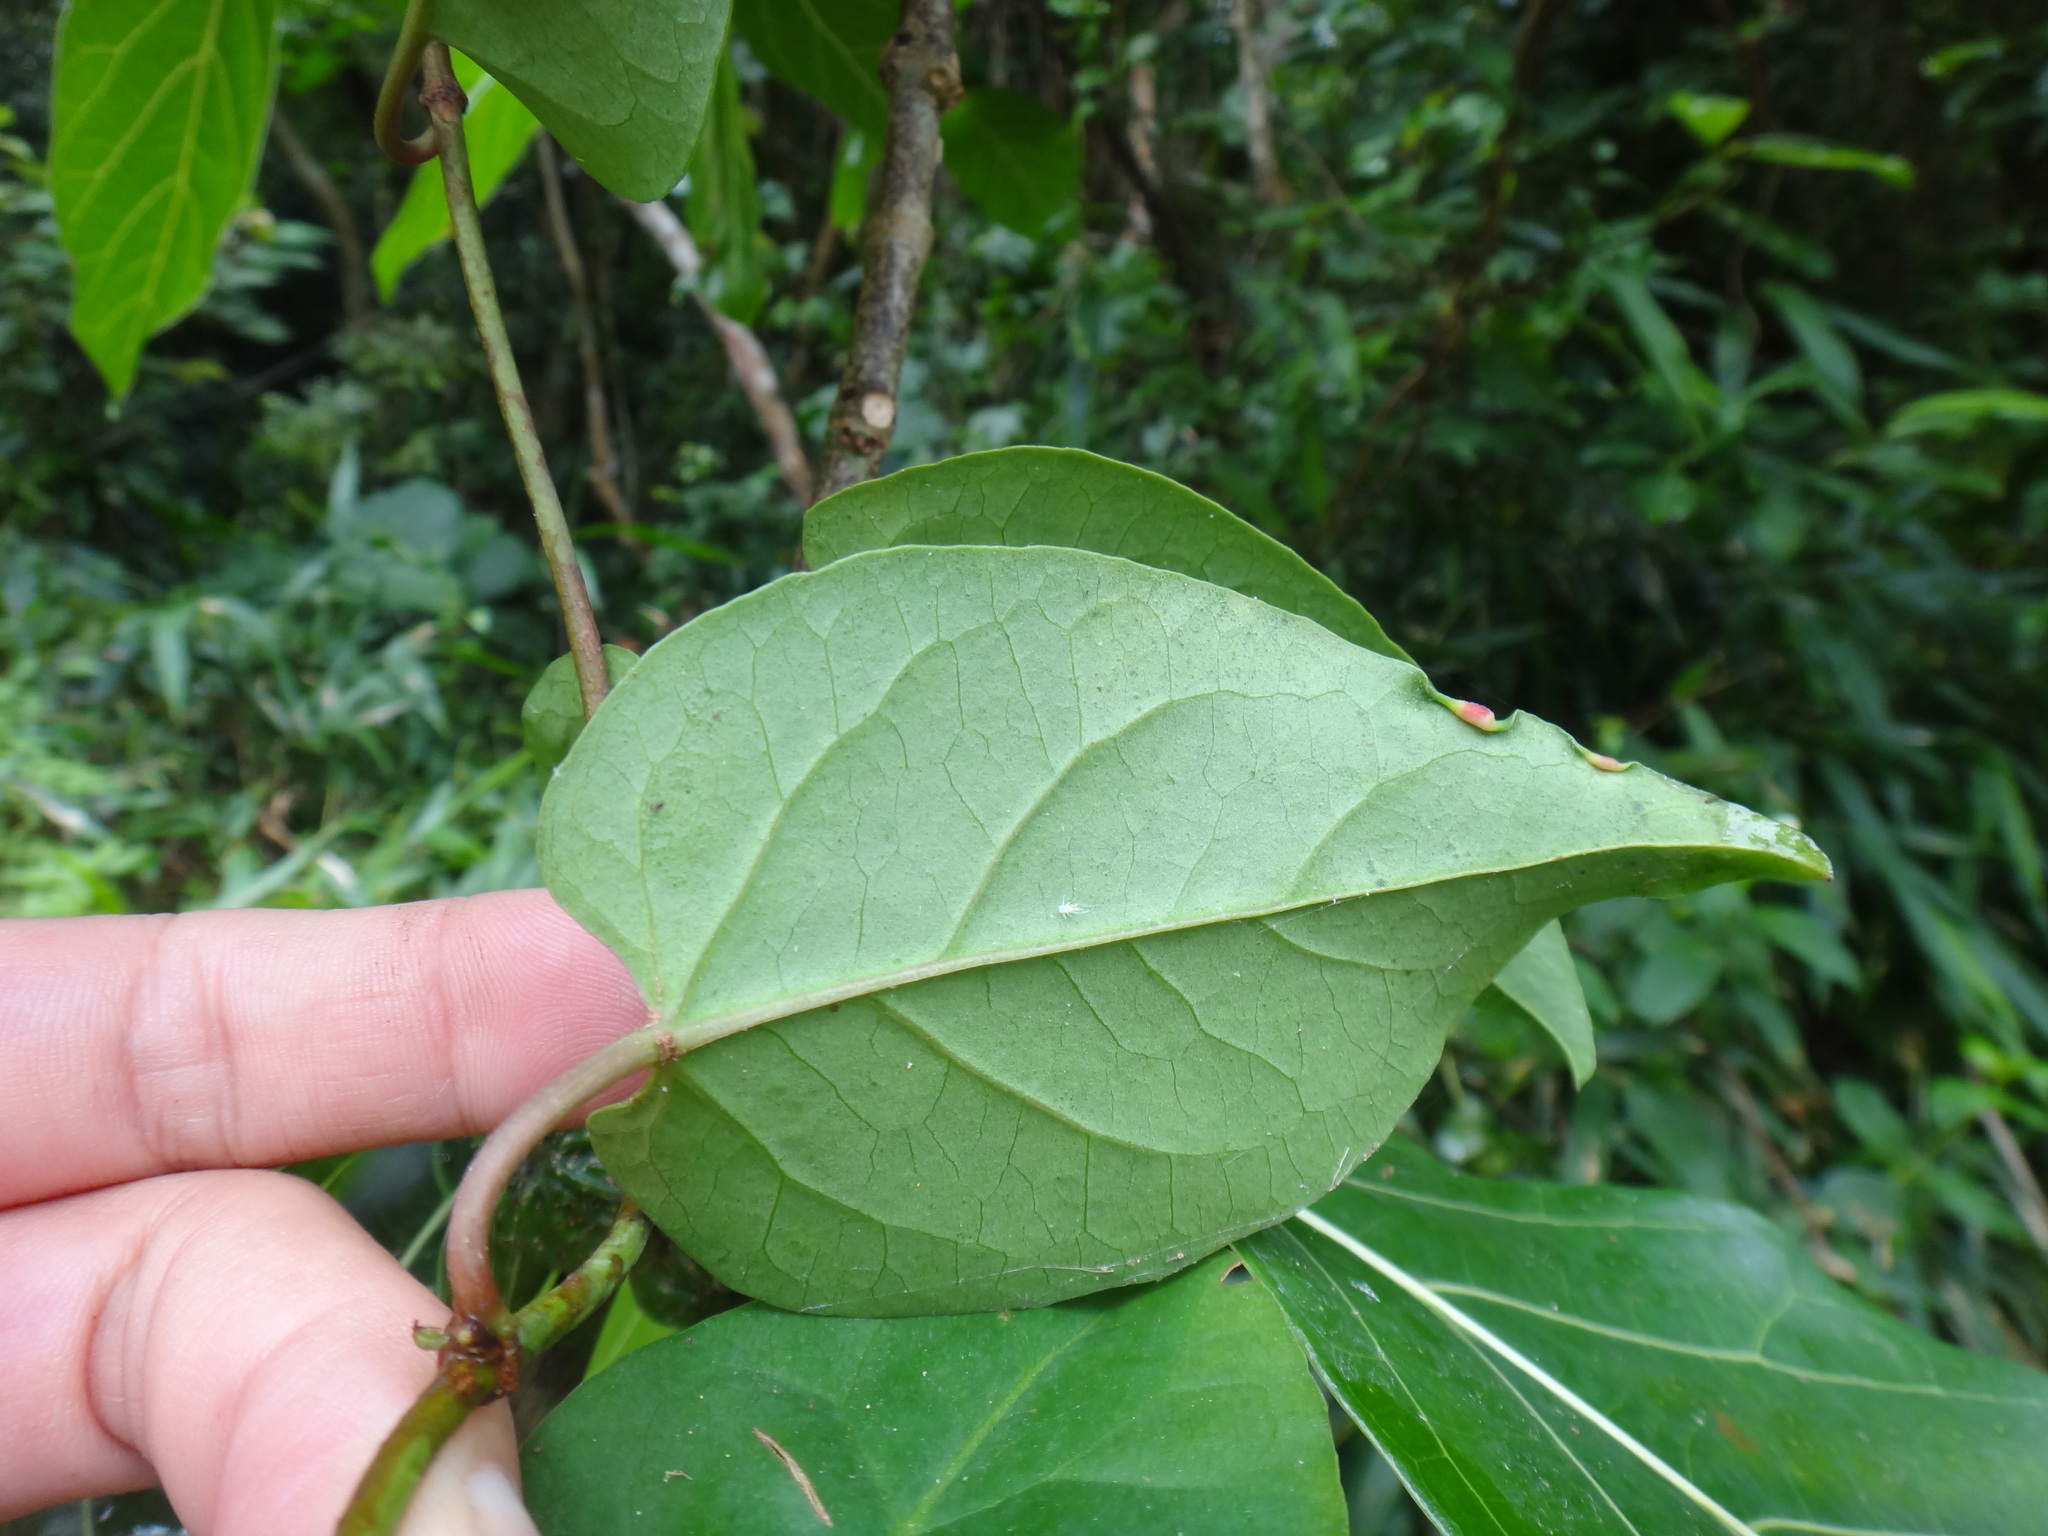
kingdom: Plantae
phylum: Tracheophyta
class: Magnoliopsida
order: Caryophyllales
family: Polygonaceae
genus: Reynoutria
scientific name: Reynoutria multiflora
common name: Chinese fleeceflower
